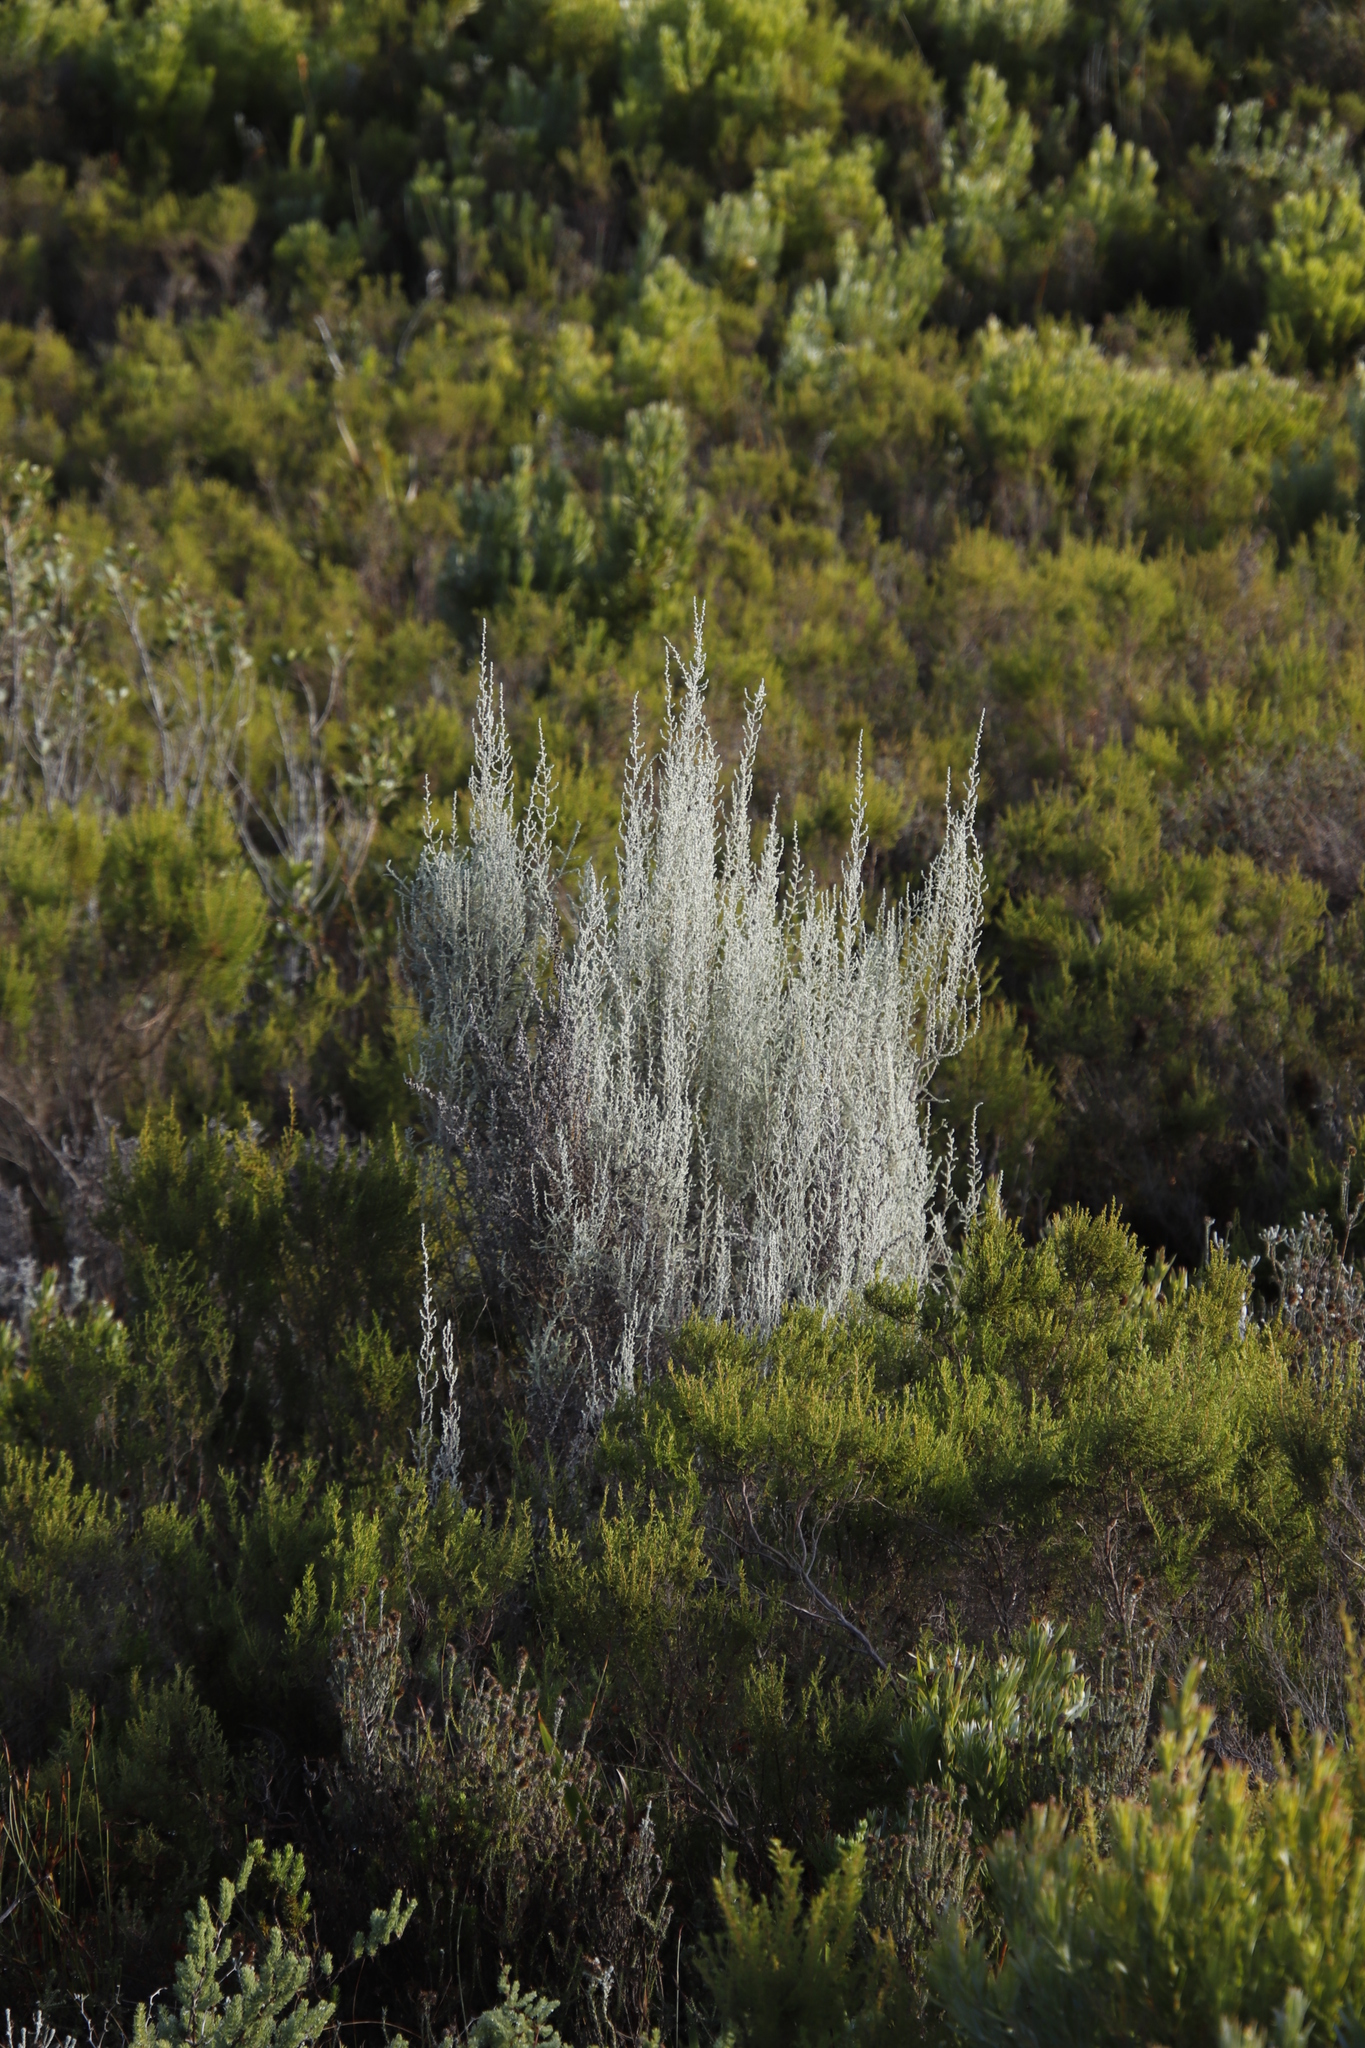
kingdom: Plantae
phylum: Tracheophyta
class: Magnoliopsida
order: Asterales
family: Asteraceae
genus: Seriphium
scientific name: Seriphium plumosum
